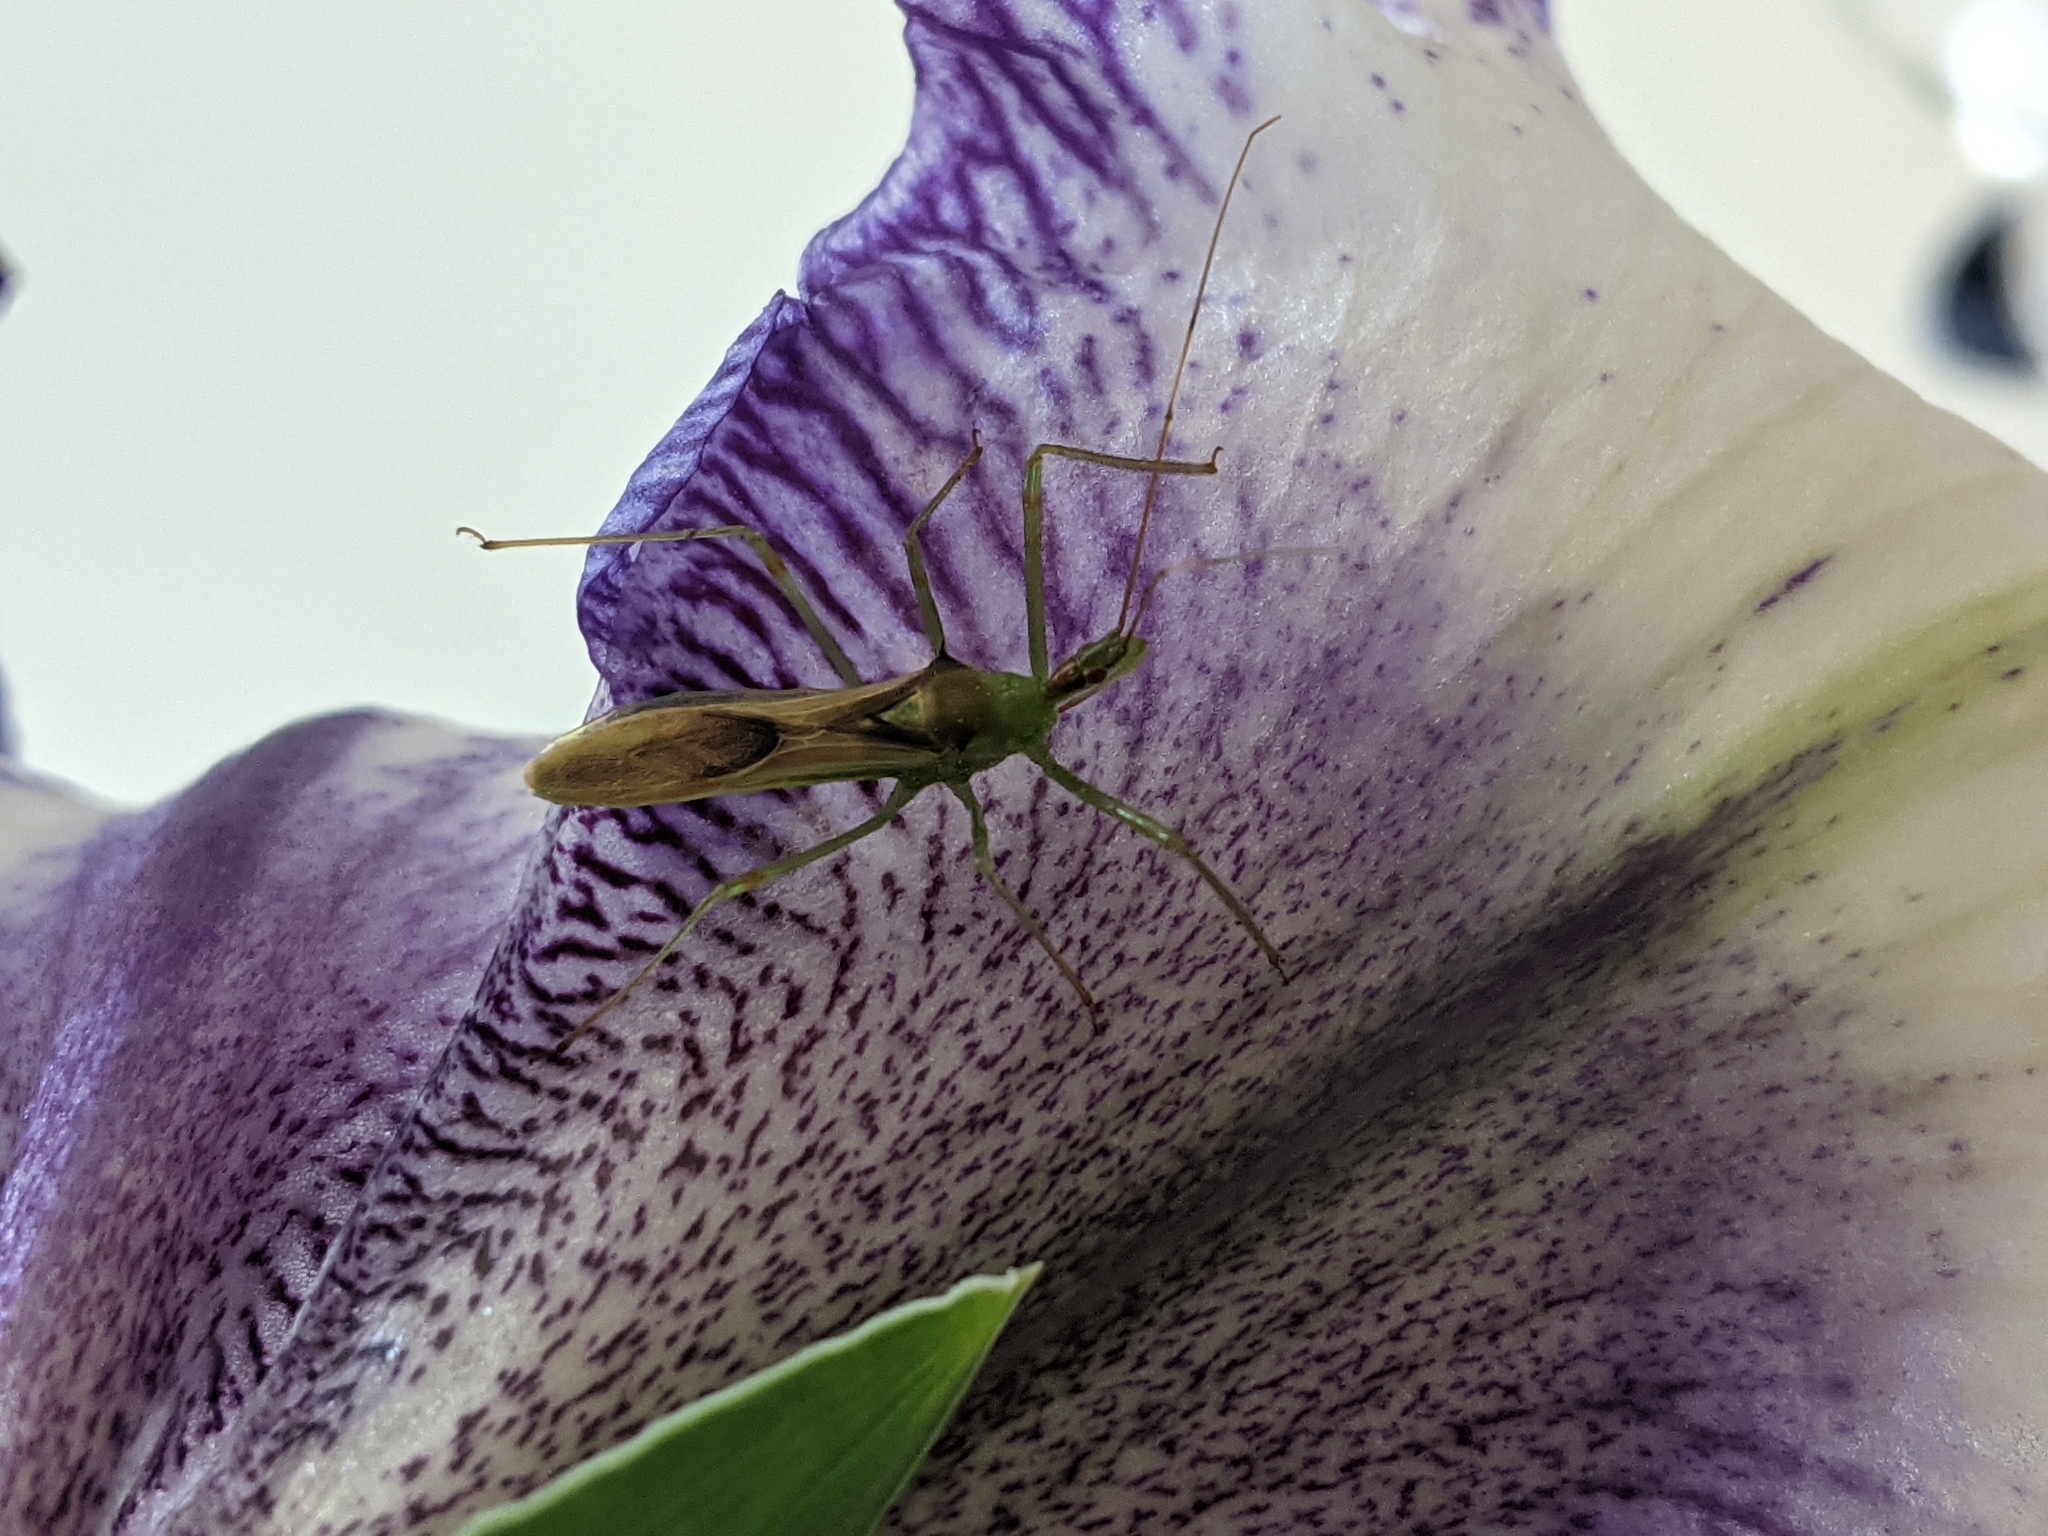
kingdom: Animalia
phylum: Arthropoda
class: Insecta
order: Hemiptera
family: Reduviidae
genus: Zelus
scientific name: Zelus luridus
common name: Pale green assassin bug
